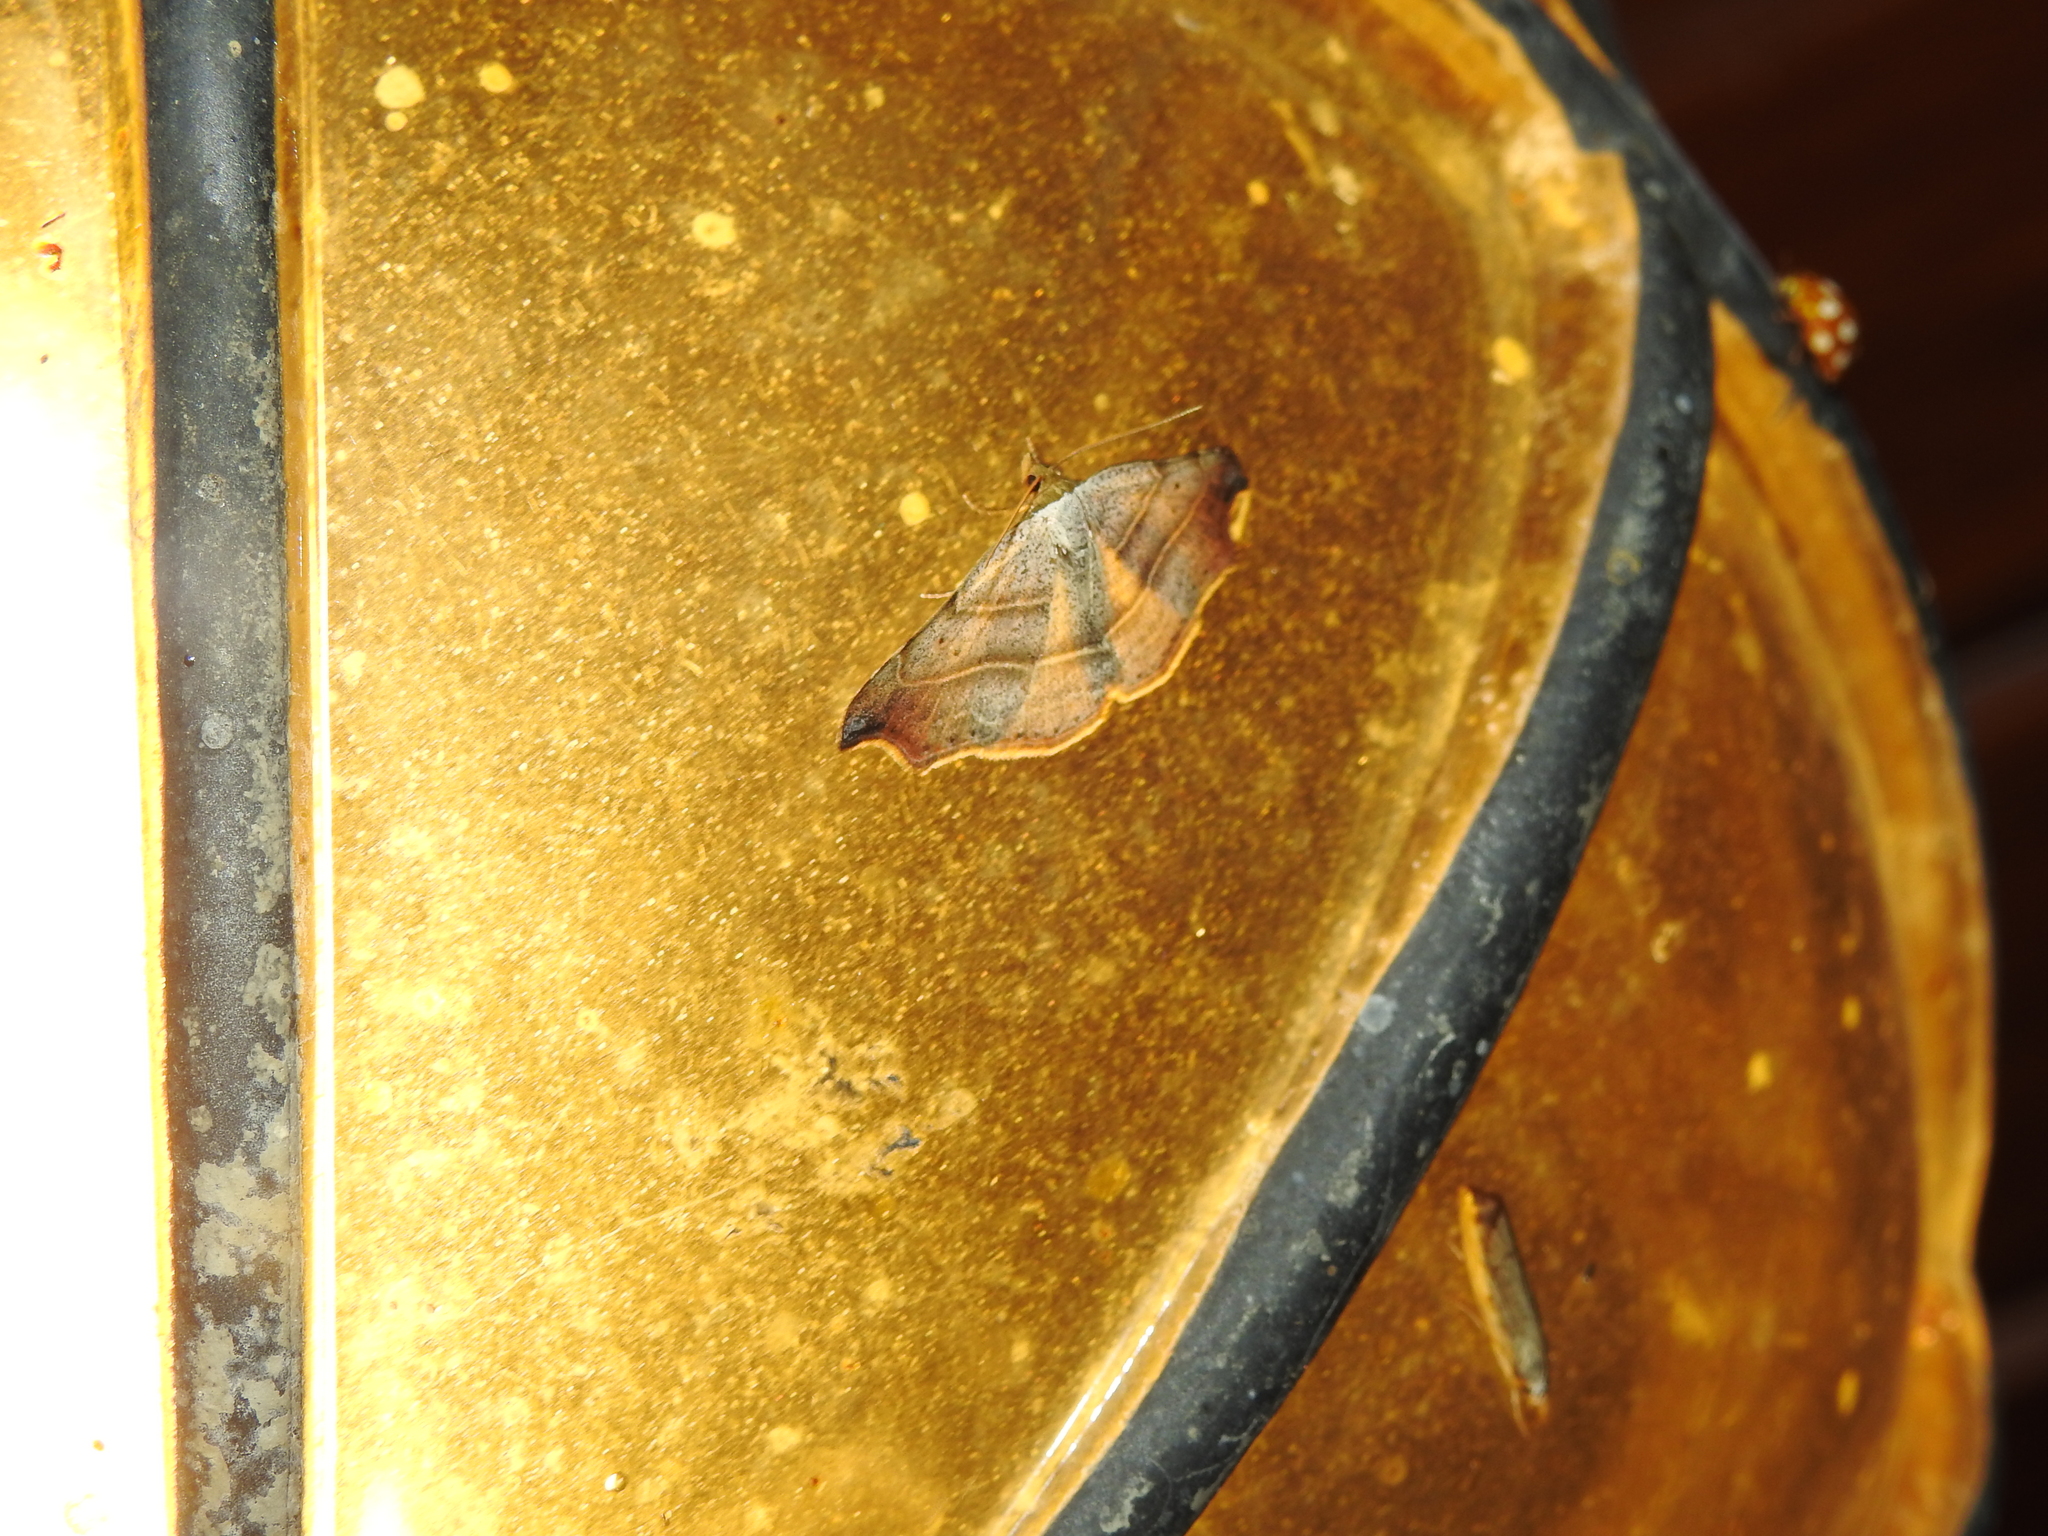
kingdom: Animalia
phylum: Arthropoda
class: Insecta
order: Lepidoptera
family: Erebidae
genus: Laspeyria
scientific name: Laspeyria flexula
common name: Beautiful hook-tip
